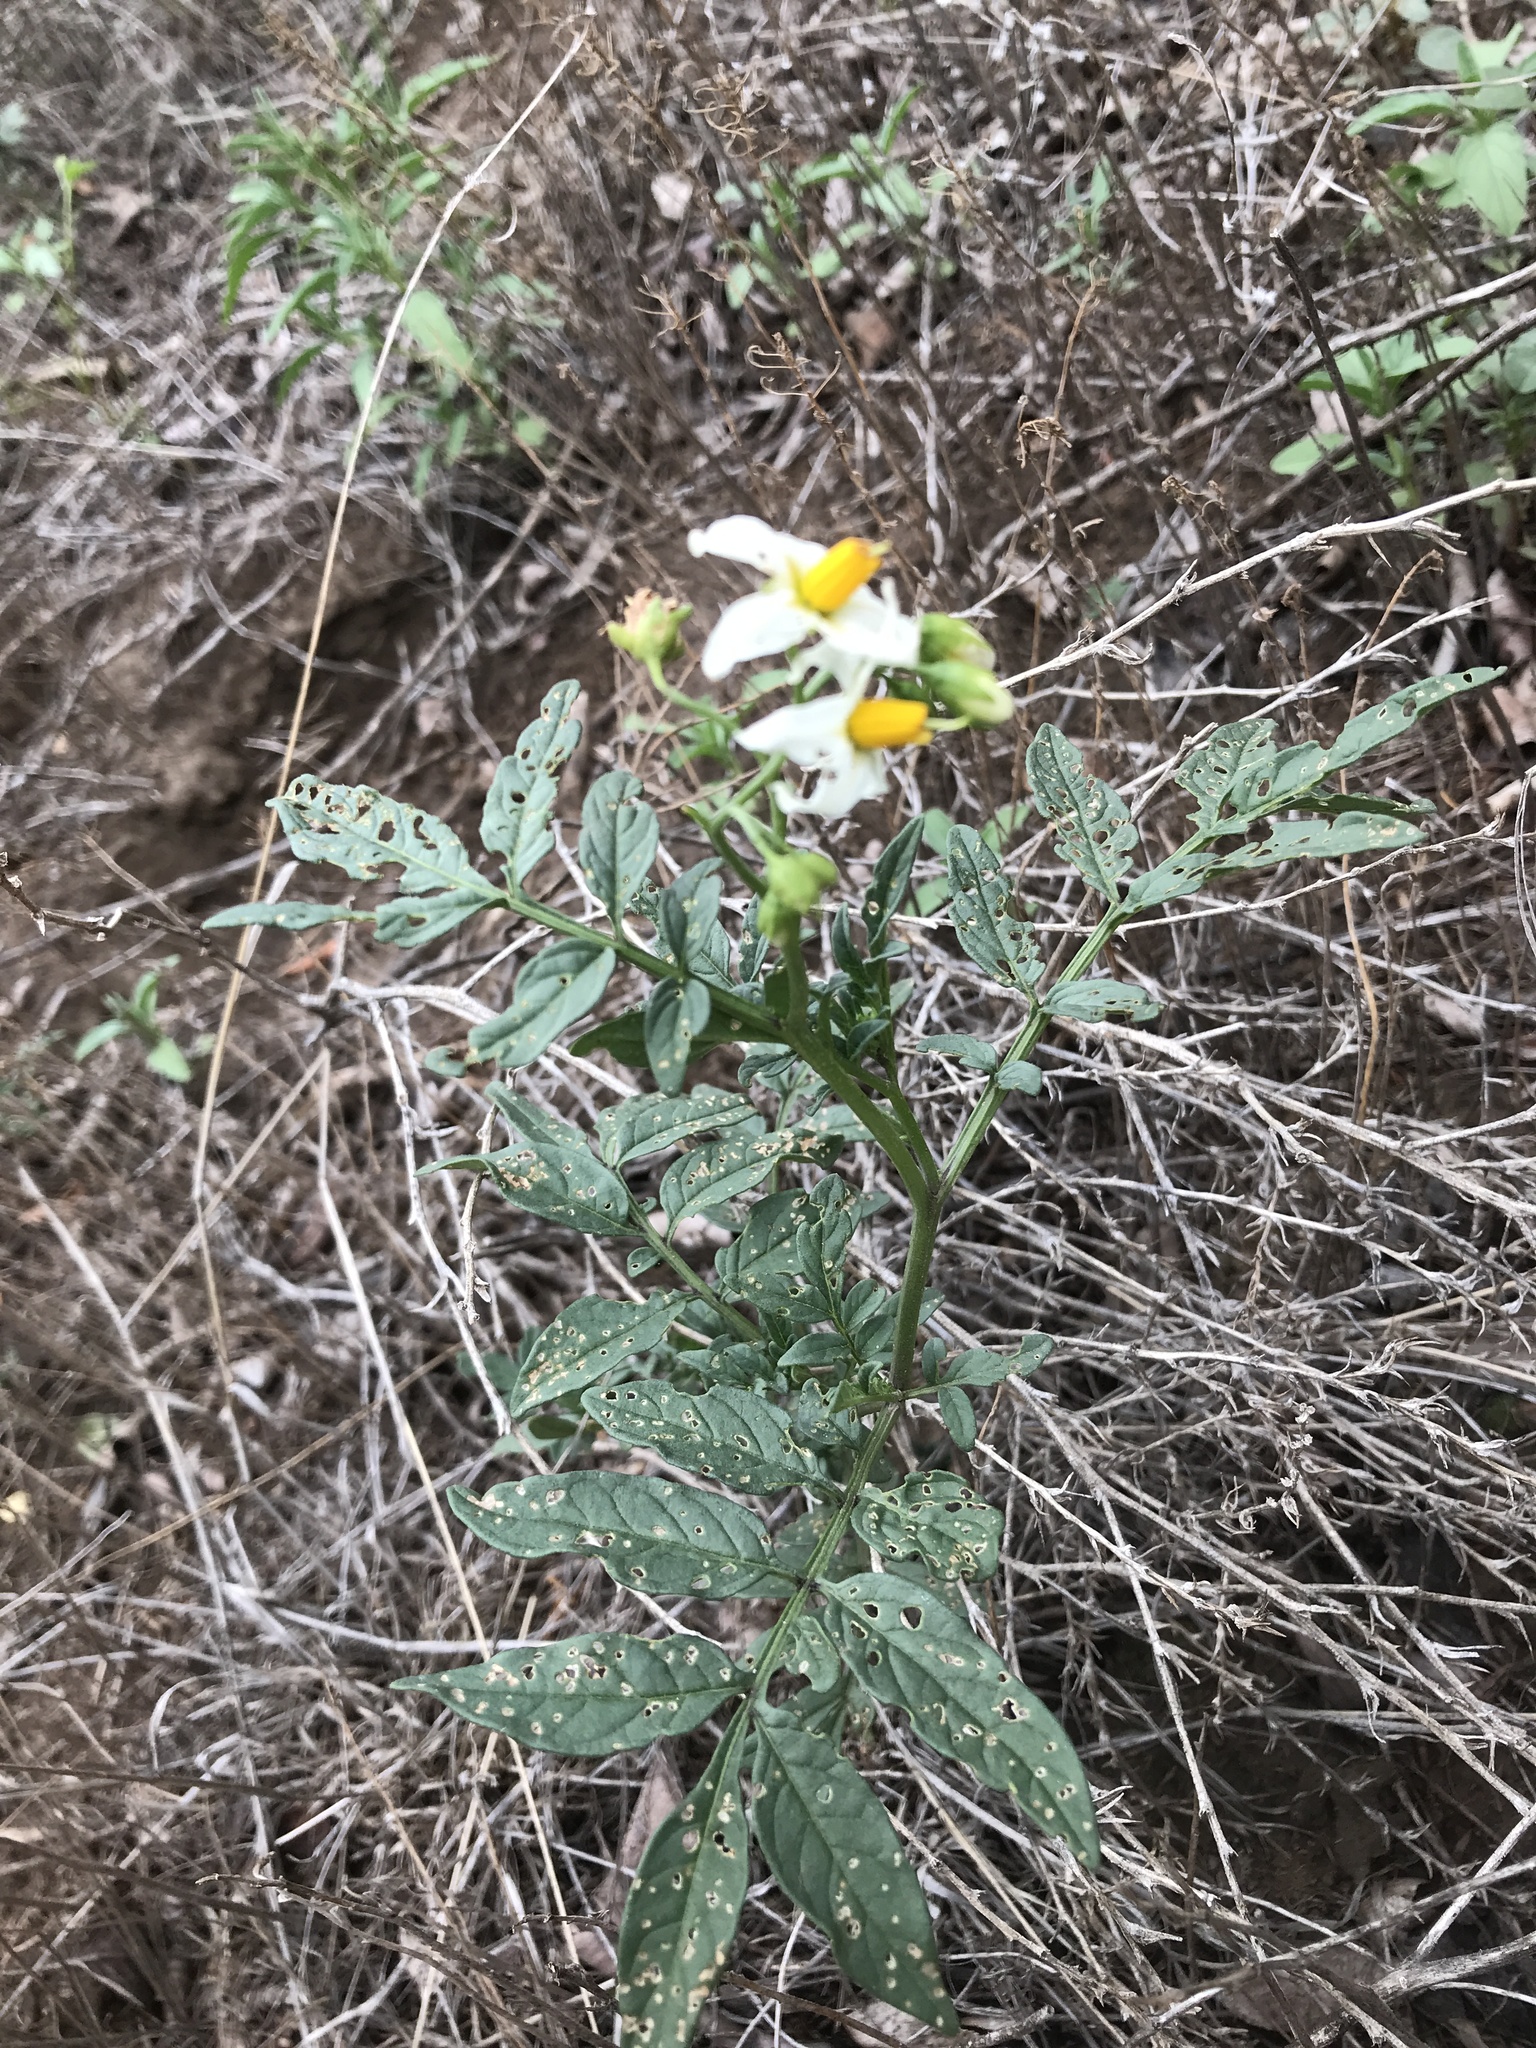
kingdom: Plantae
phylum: Tracheophyta
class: Magnoliopsida
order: Solanales
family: Solanaceae
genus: Solanum
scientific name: Solanum jamesii
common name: Wild potato
